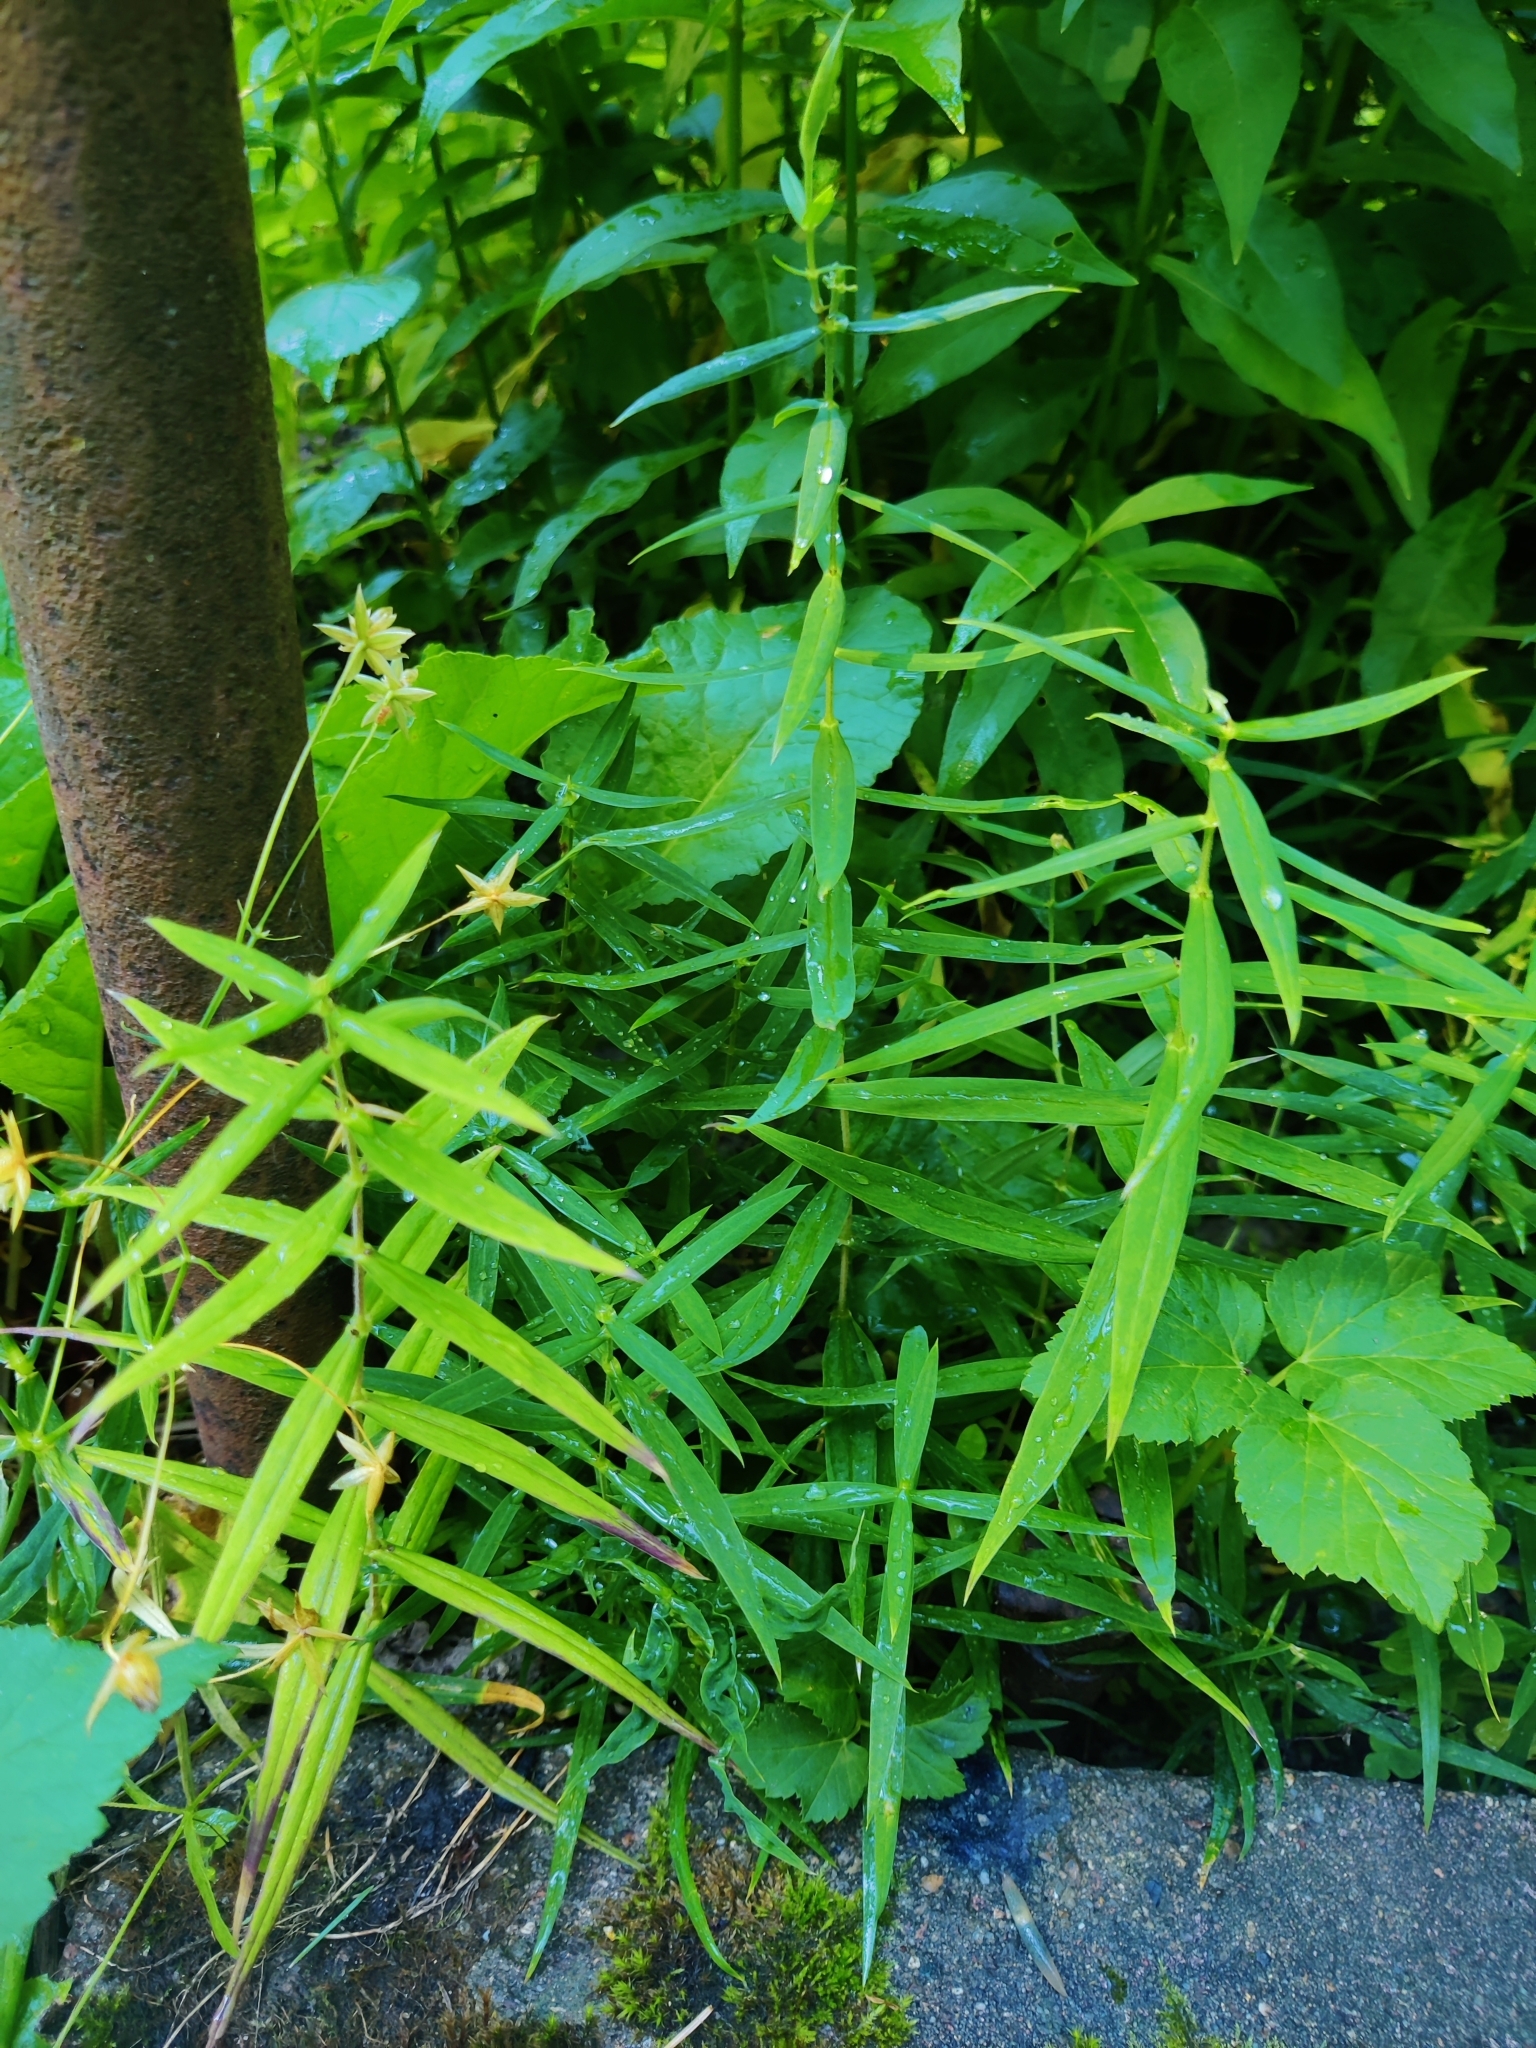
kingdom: Plantae
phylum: Tracheophyta
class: Magnoliopsida
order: Caryophyllales
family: Caryophyllaceae
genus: Rabelera
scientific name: Rabelera holostea
